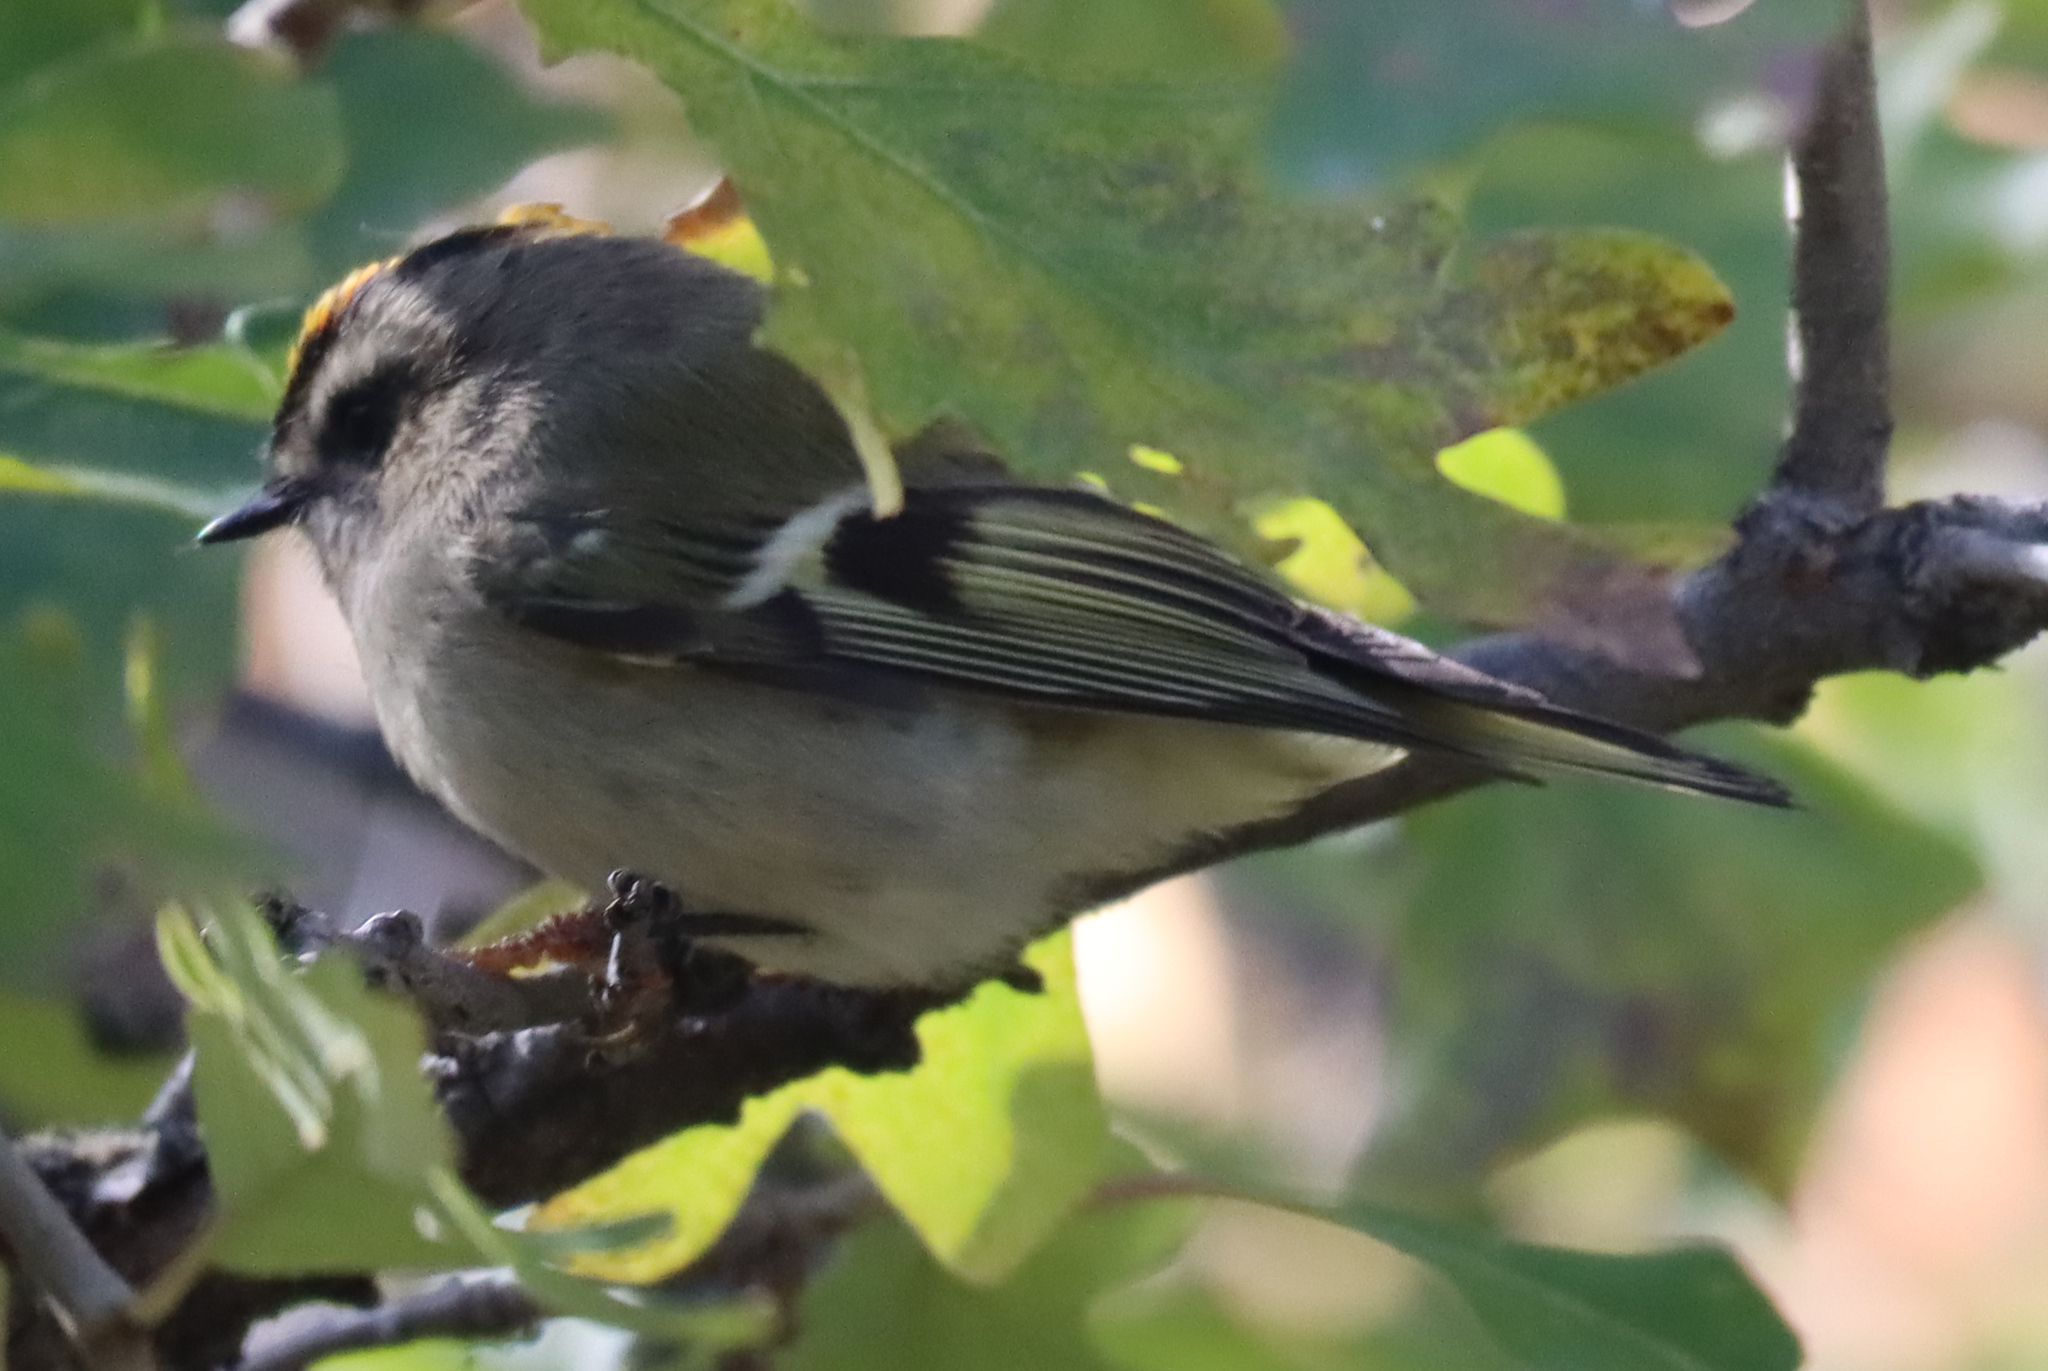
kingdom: Animalia
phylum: Chordata
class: Aves
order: Passeriformes
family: Regulidae
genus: Regulus
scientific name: Regulus satrapa
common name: Golden-crowned kinglet
